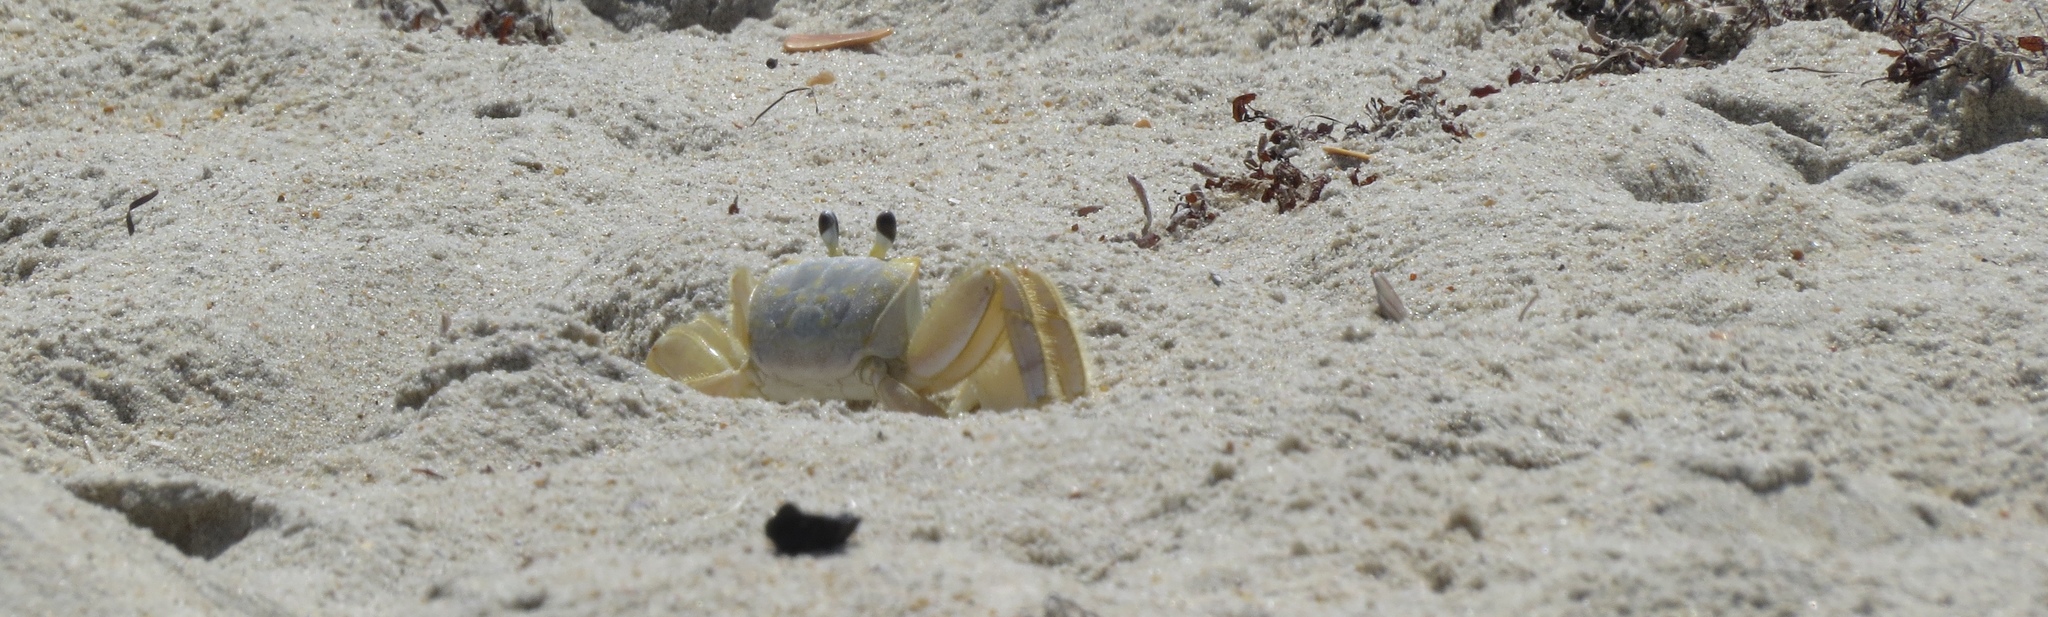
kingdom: Animalia
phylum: Arthropoda
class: Malacostraca
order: Decapoda
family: Ocypodidae
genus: Ocypode
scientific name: Ocypode quadrata
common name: Ghost crab
